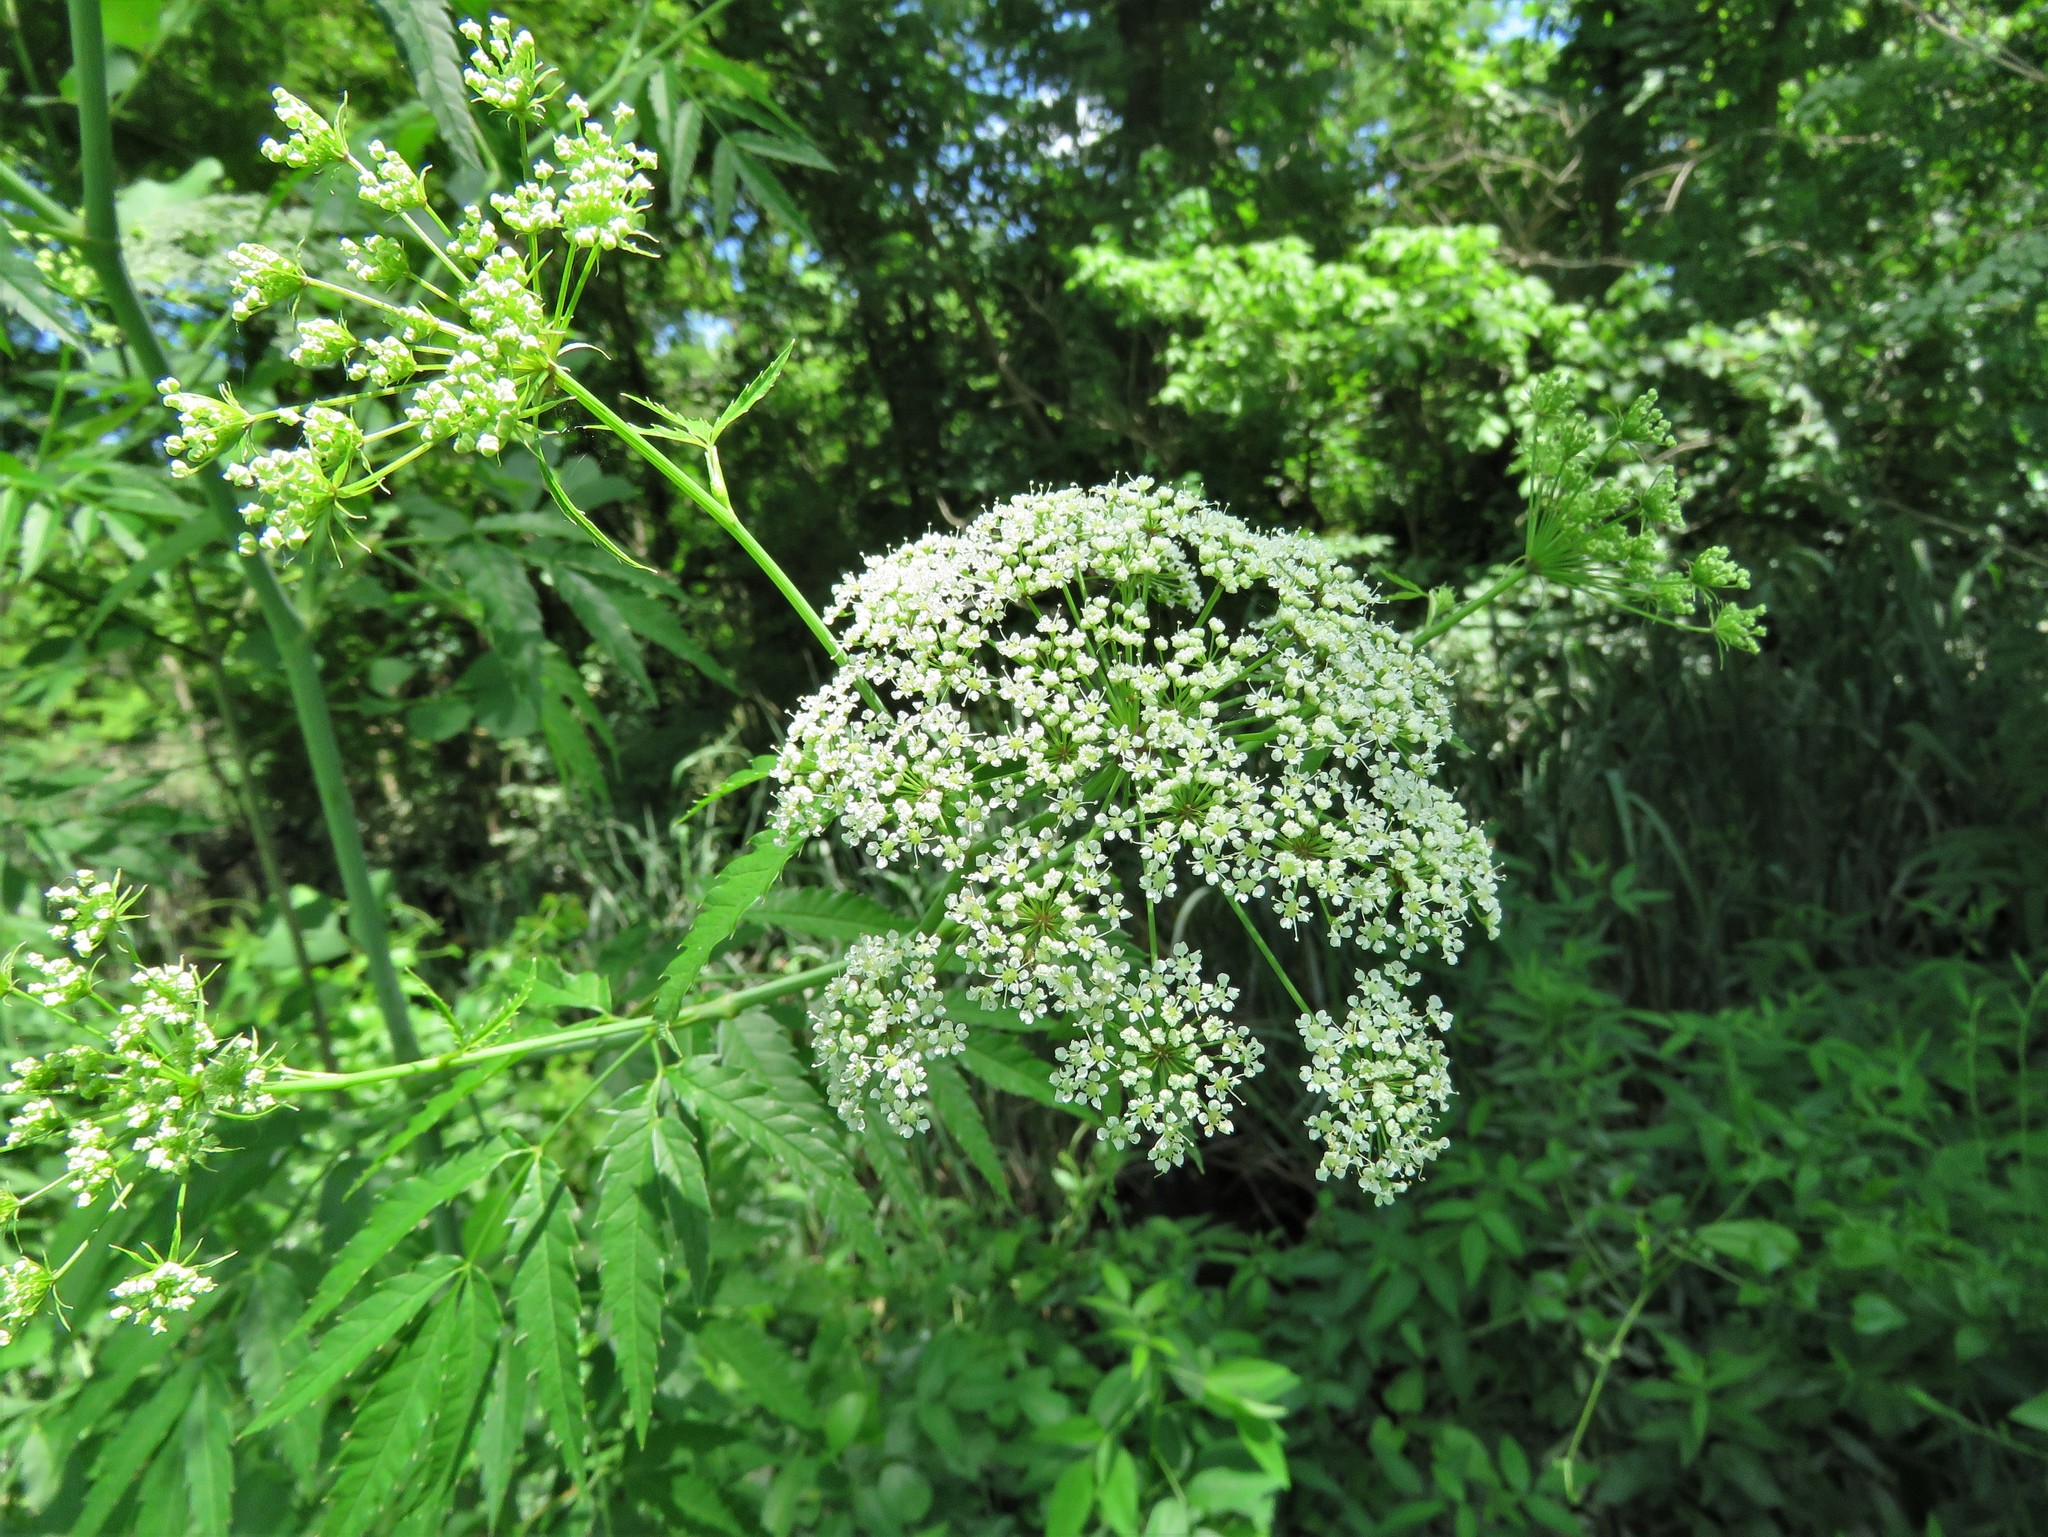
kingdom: Plantae
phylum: Tracheophyta
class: Magnoliopsida
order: Apiales
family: Apiaceae
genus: Cicuta
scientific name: Cicuta maculata
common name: Spotted cowbane
